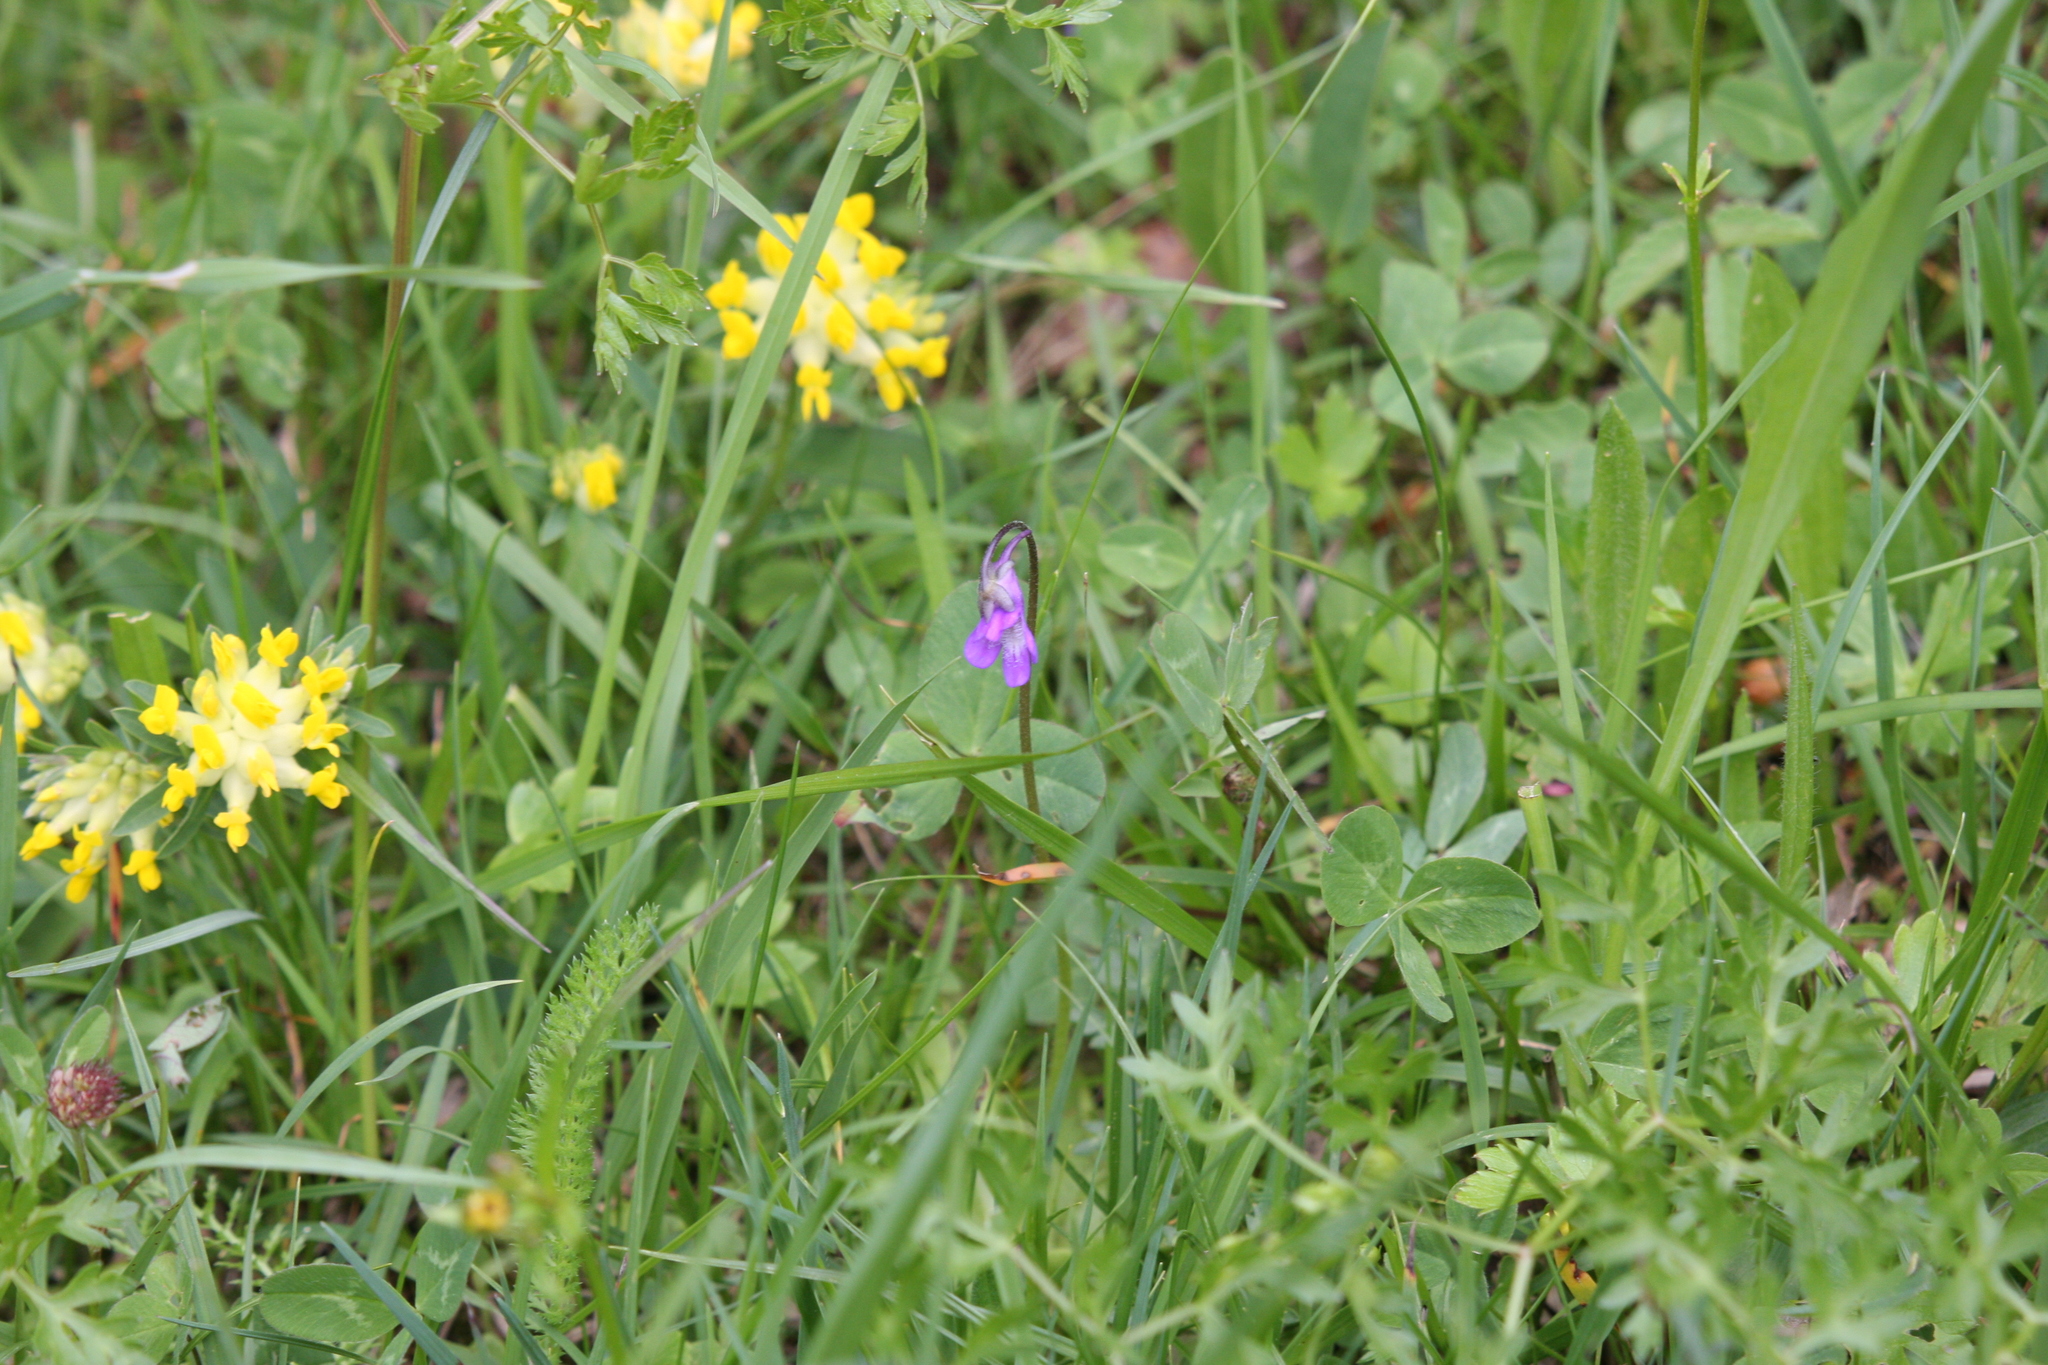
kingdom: Plantae
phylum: Tracheophyta
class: Magnoliopsida
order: Fabales
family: Fabaceae
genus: Anthyllis
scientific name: Anthyllis vulneraria
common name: Kidney vetch
